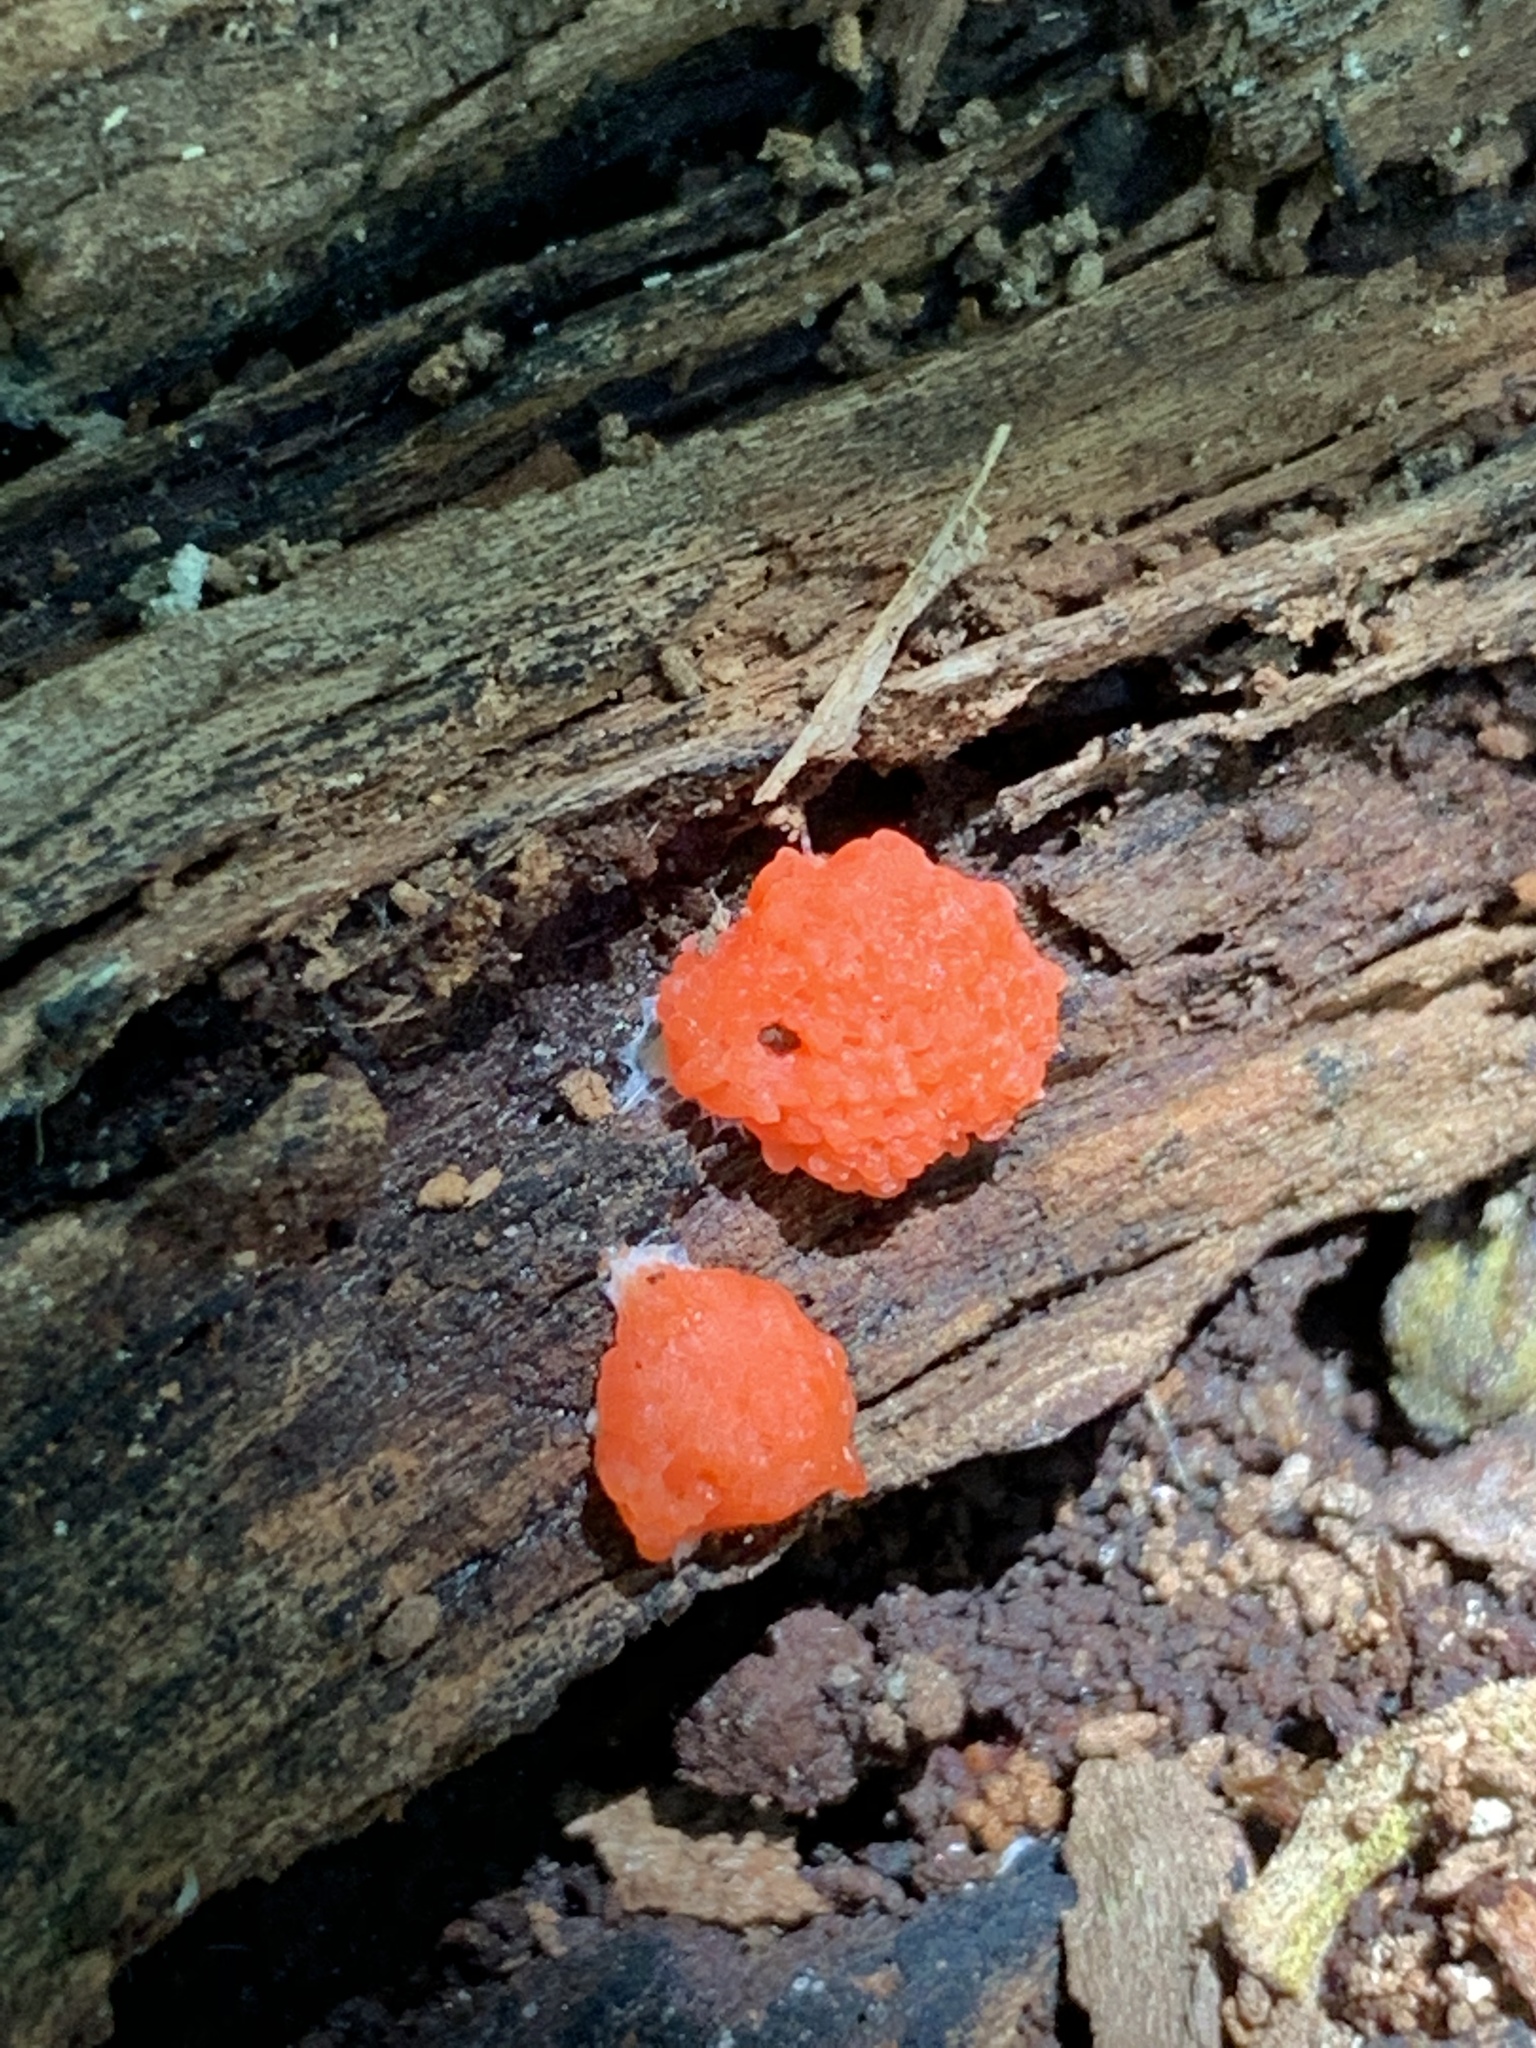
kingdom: Protozoa
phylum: Mycetozoa
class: Myxomycetes
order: Cribrariales
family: Tubiferaceae
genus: Tubifera
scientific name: Tubifera ferruginosa
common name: Red raspberry slime mold
